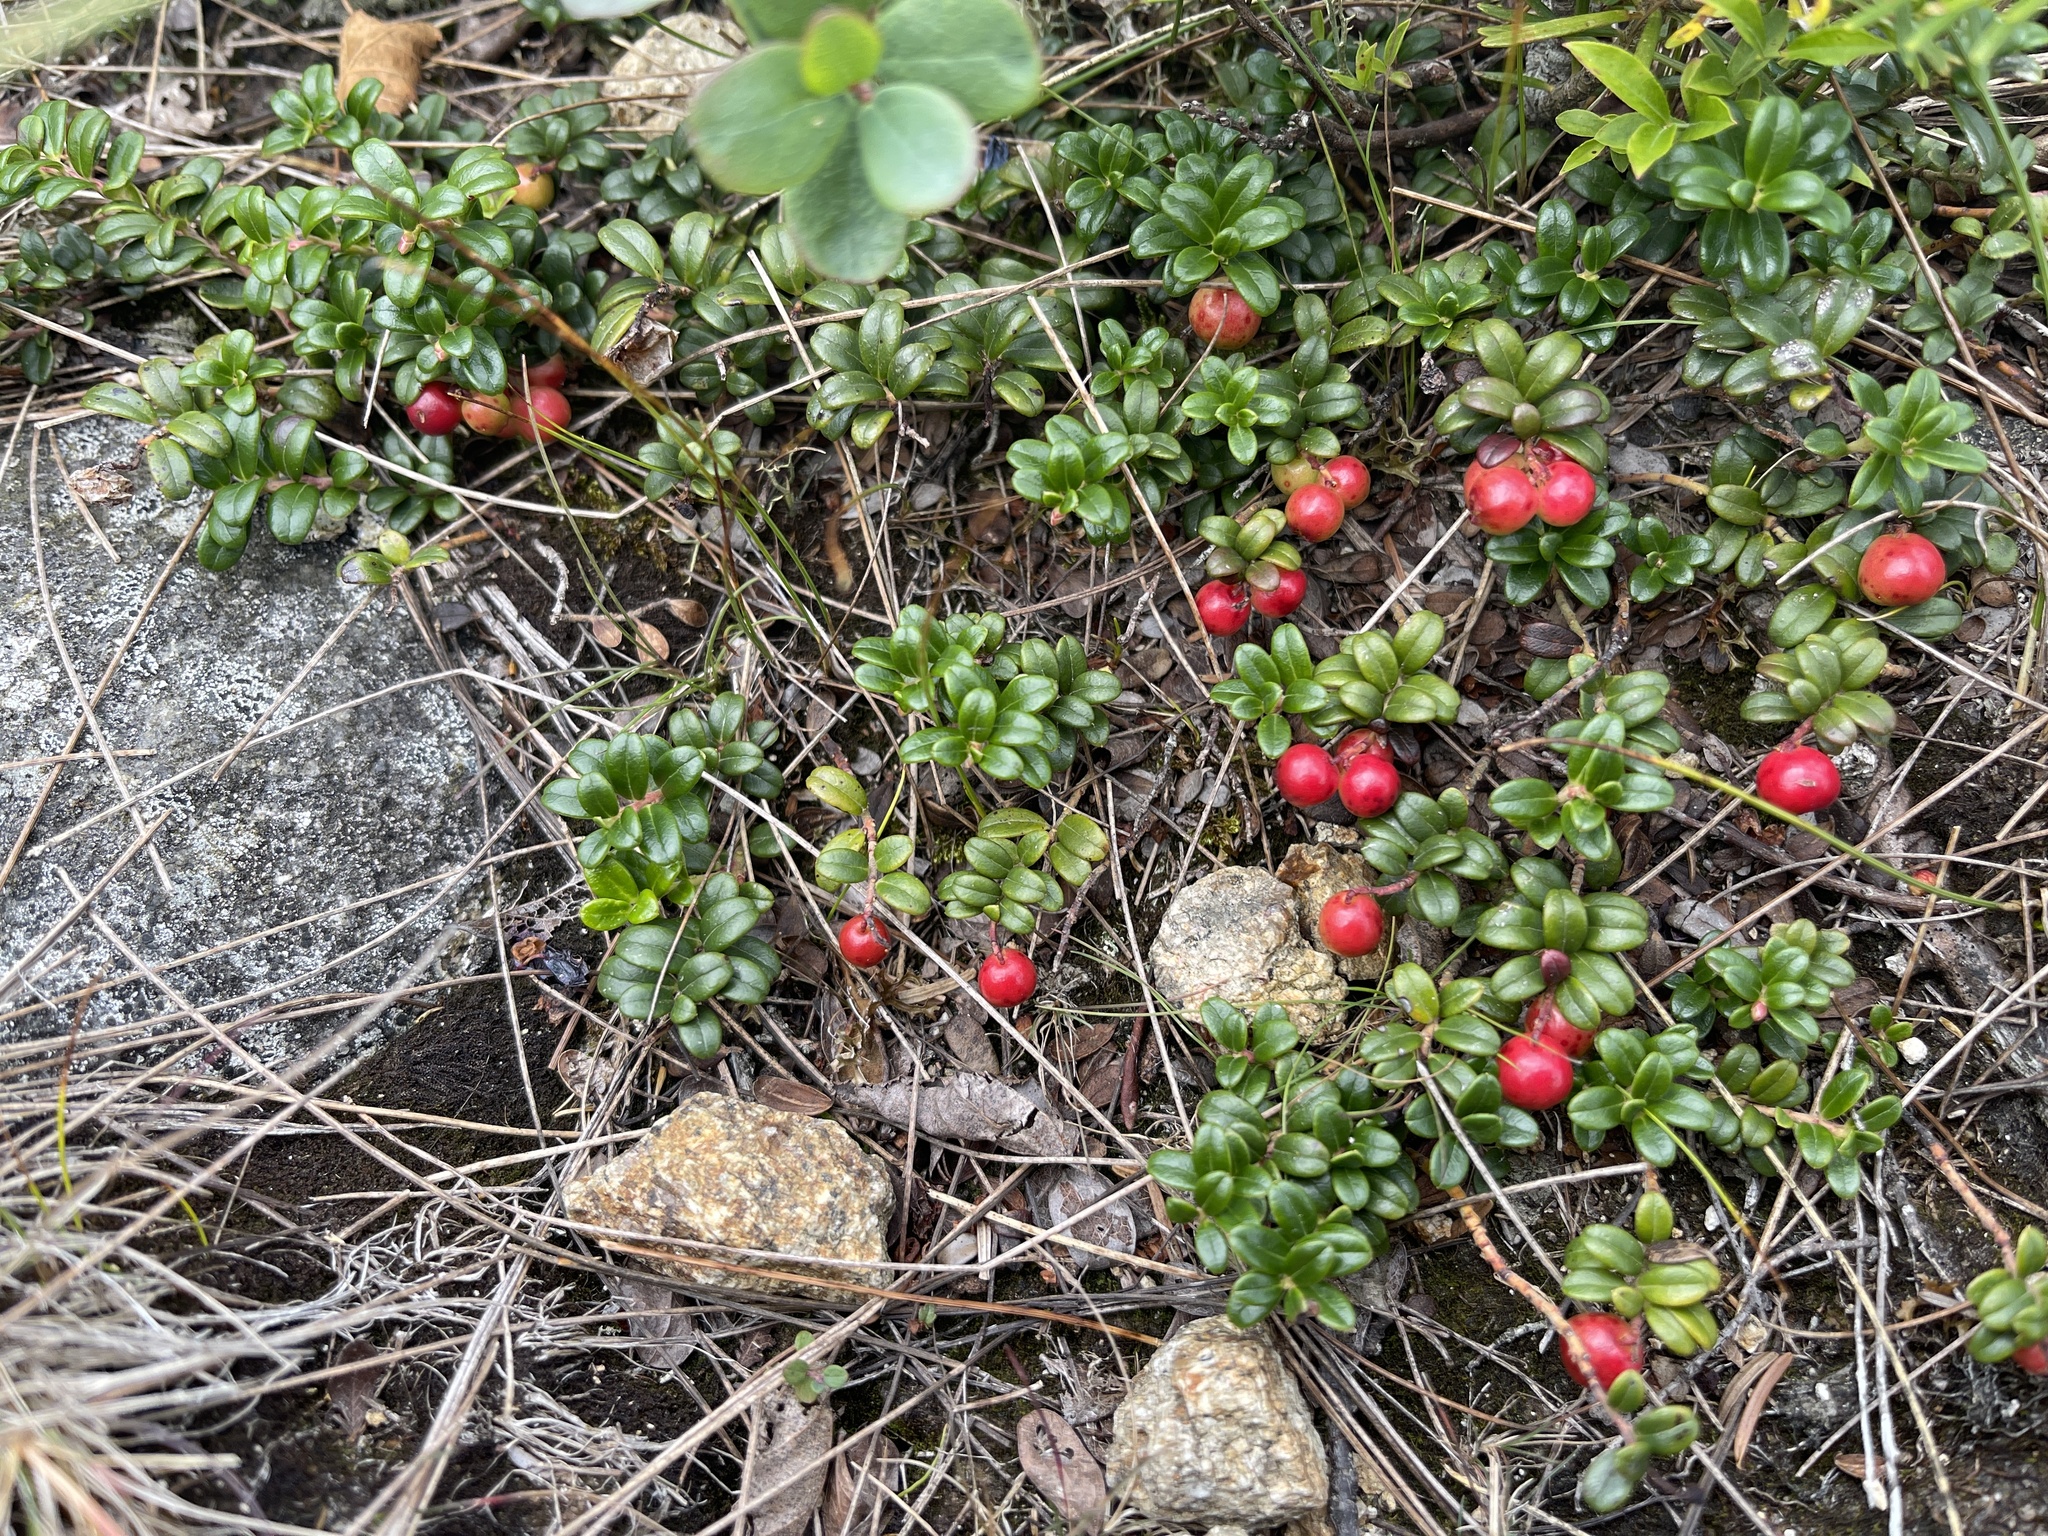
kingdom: Plantae
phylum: Tracheophyta
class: Magnoliopsida
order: Ericales
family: Ericaceae
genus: Vaccinium
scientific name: Vaccinium vitis-idaea
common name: Cowberry
